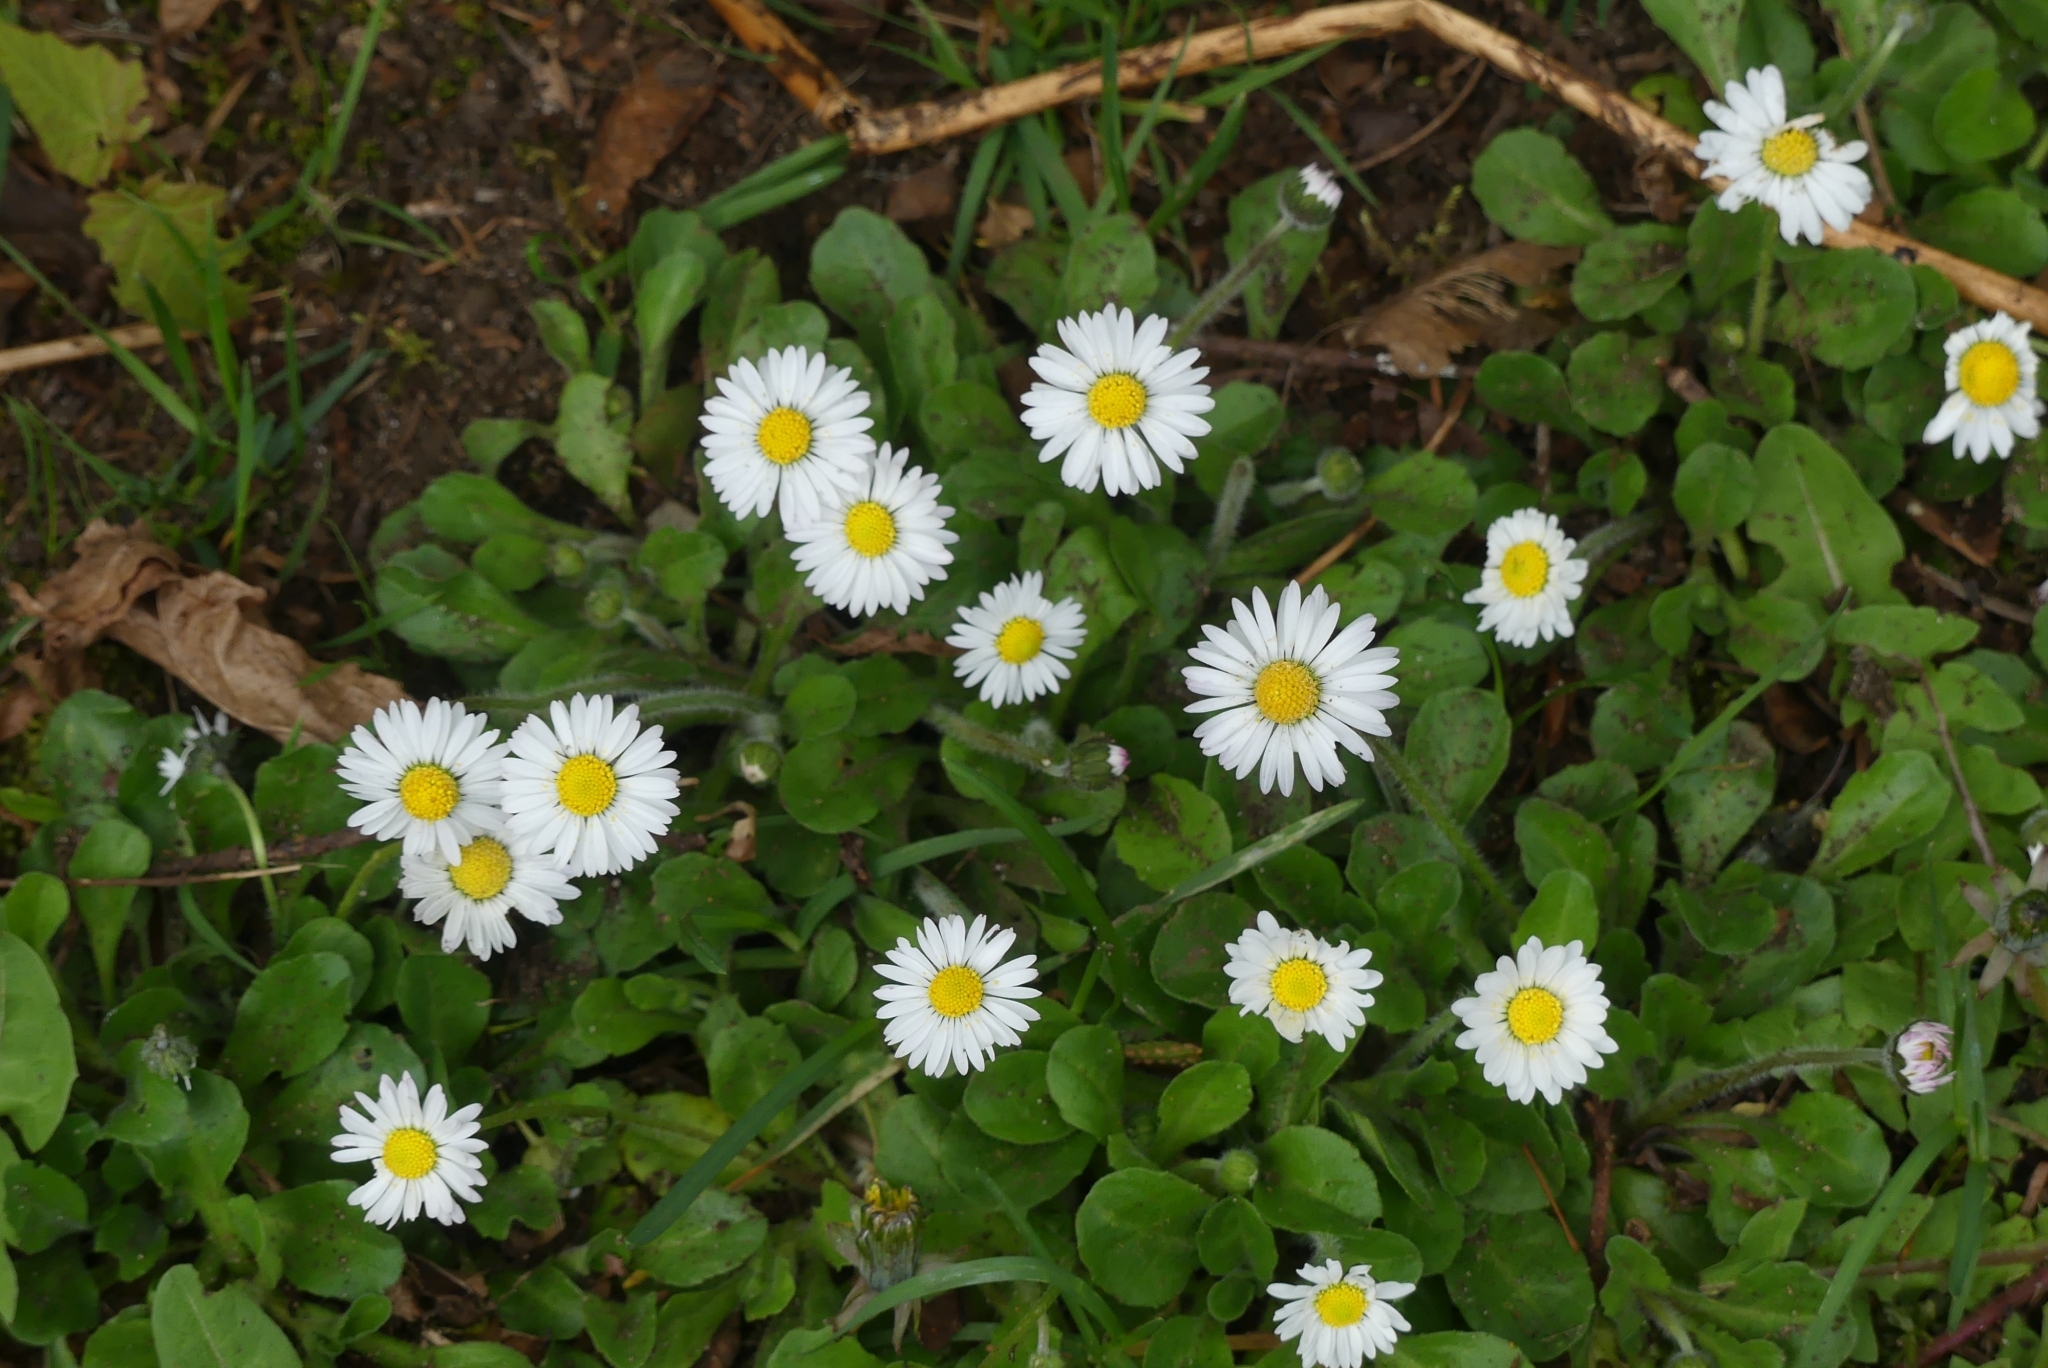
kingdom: Plantae
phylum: Tracheophyta
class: Magnoliopsida
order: Asterales
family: Asteraceae
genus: Bellis
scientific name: Bellis perennis
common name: Lawndaisy
